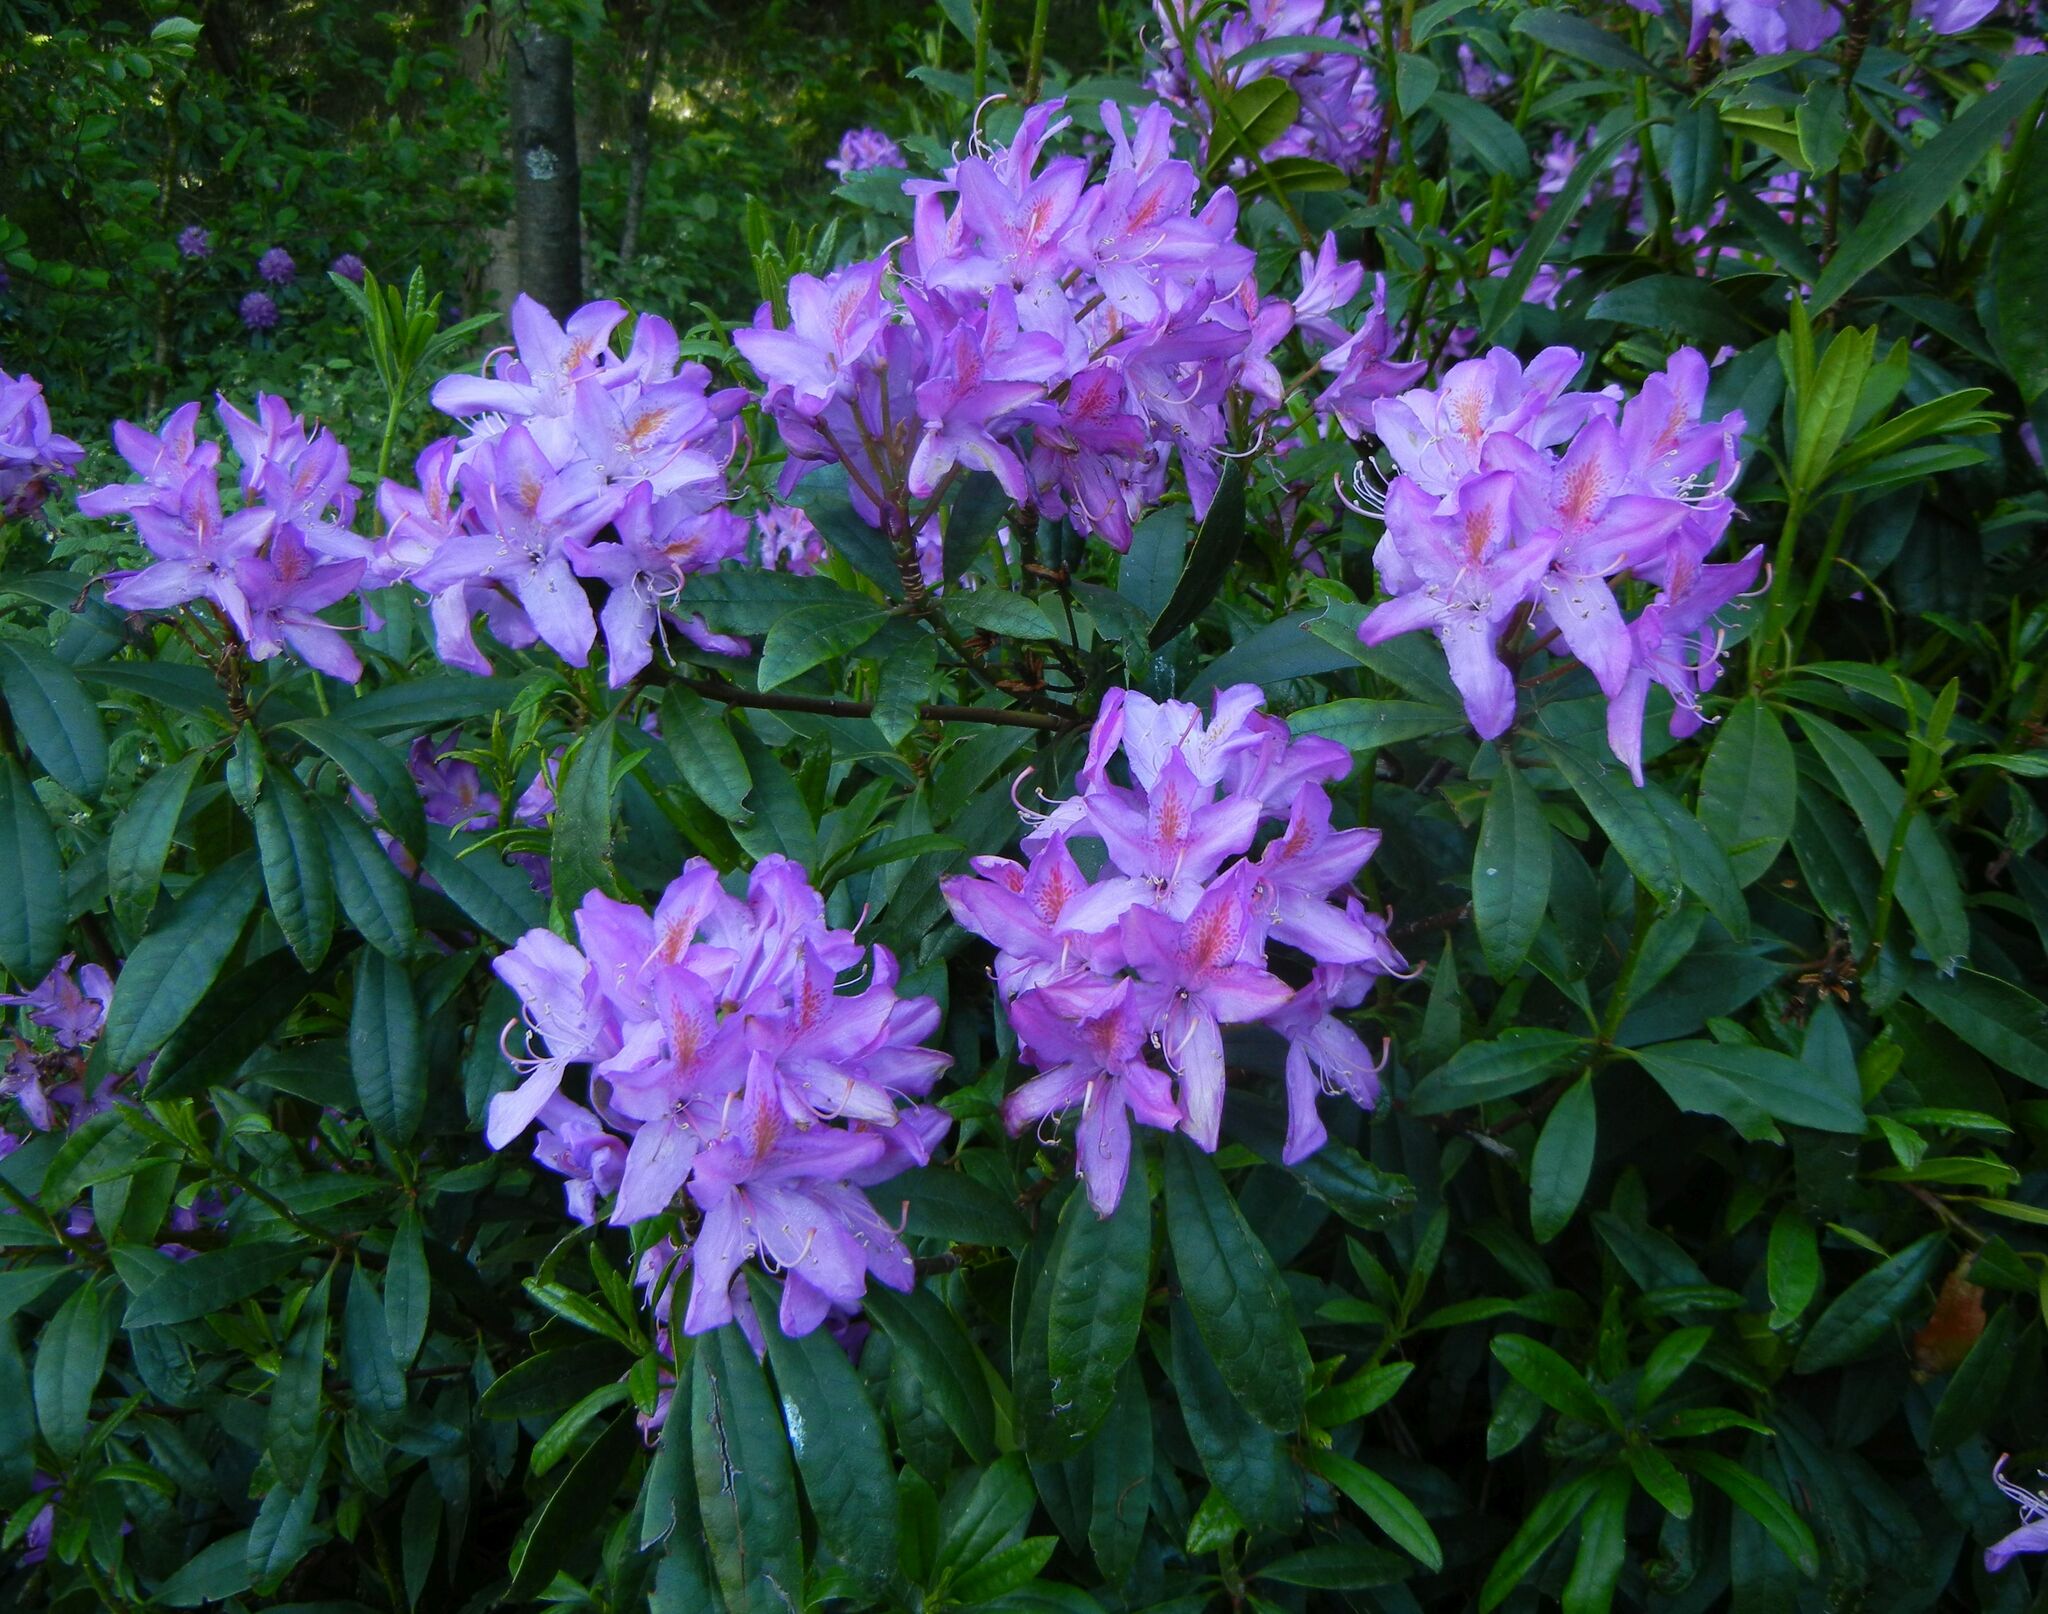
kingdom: Plantae
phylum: Tracheophyta
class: Magnoliopsida
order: Ericales
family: Ericaceae
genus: Rhododendron
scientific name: Rhododendron ponticum
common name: Rhododendron
